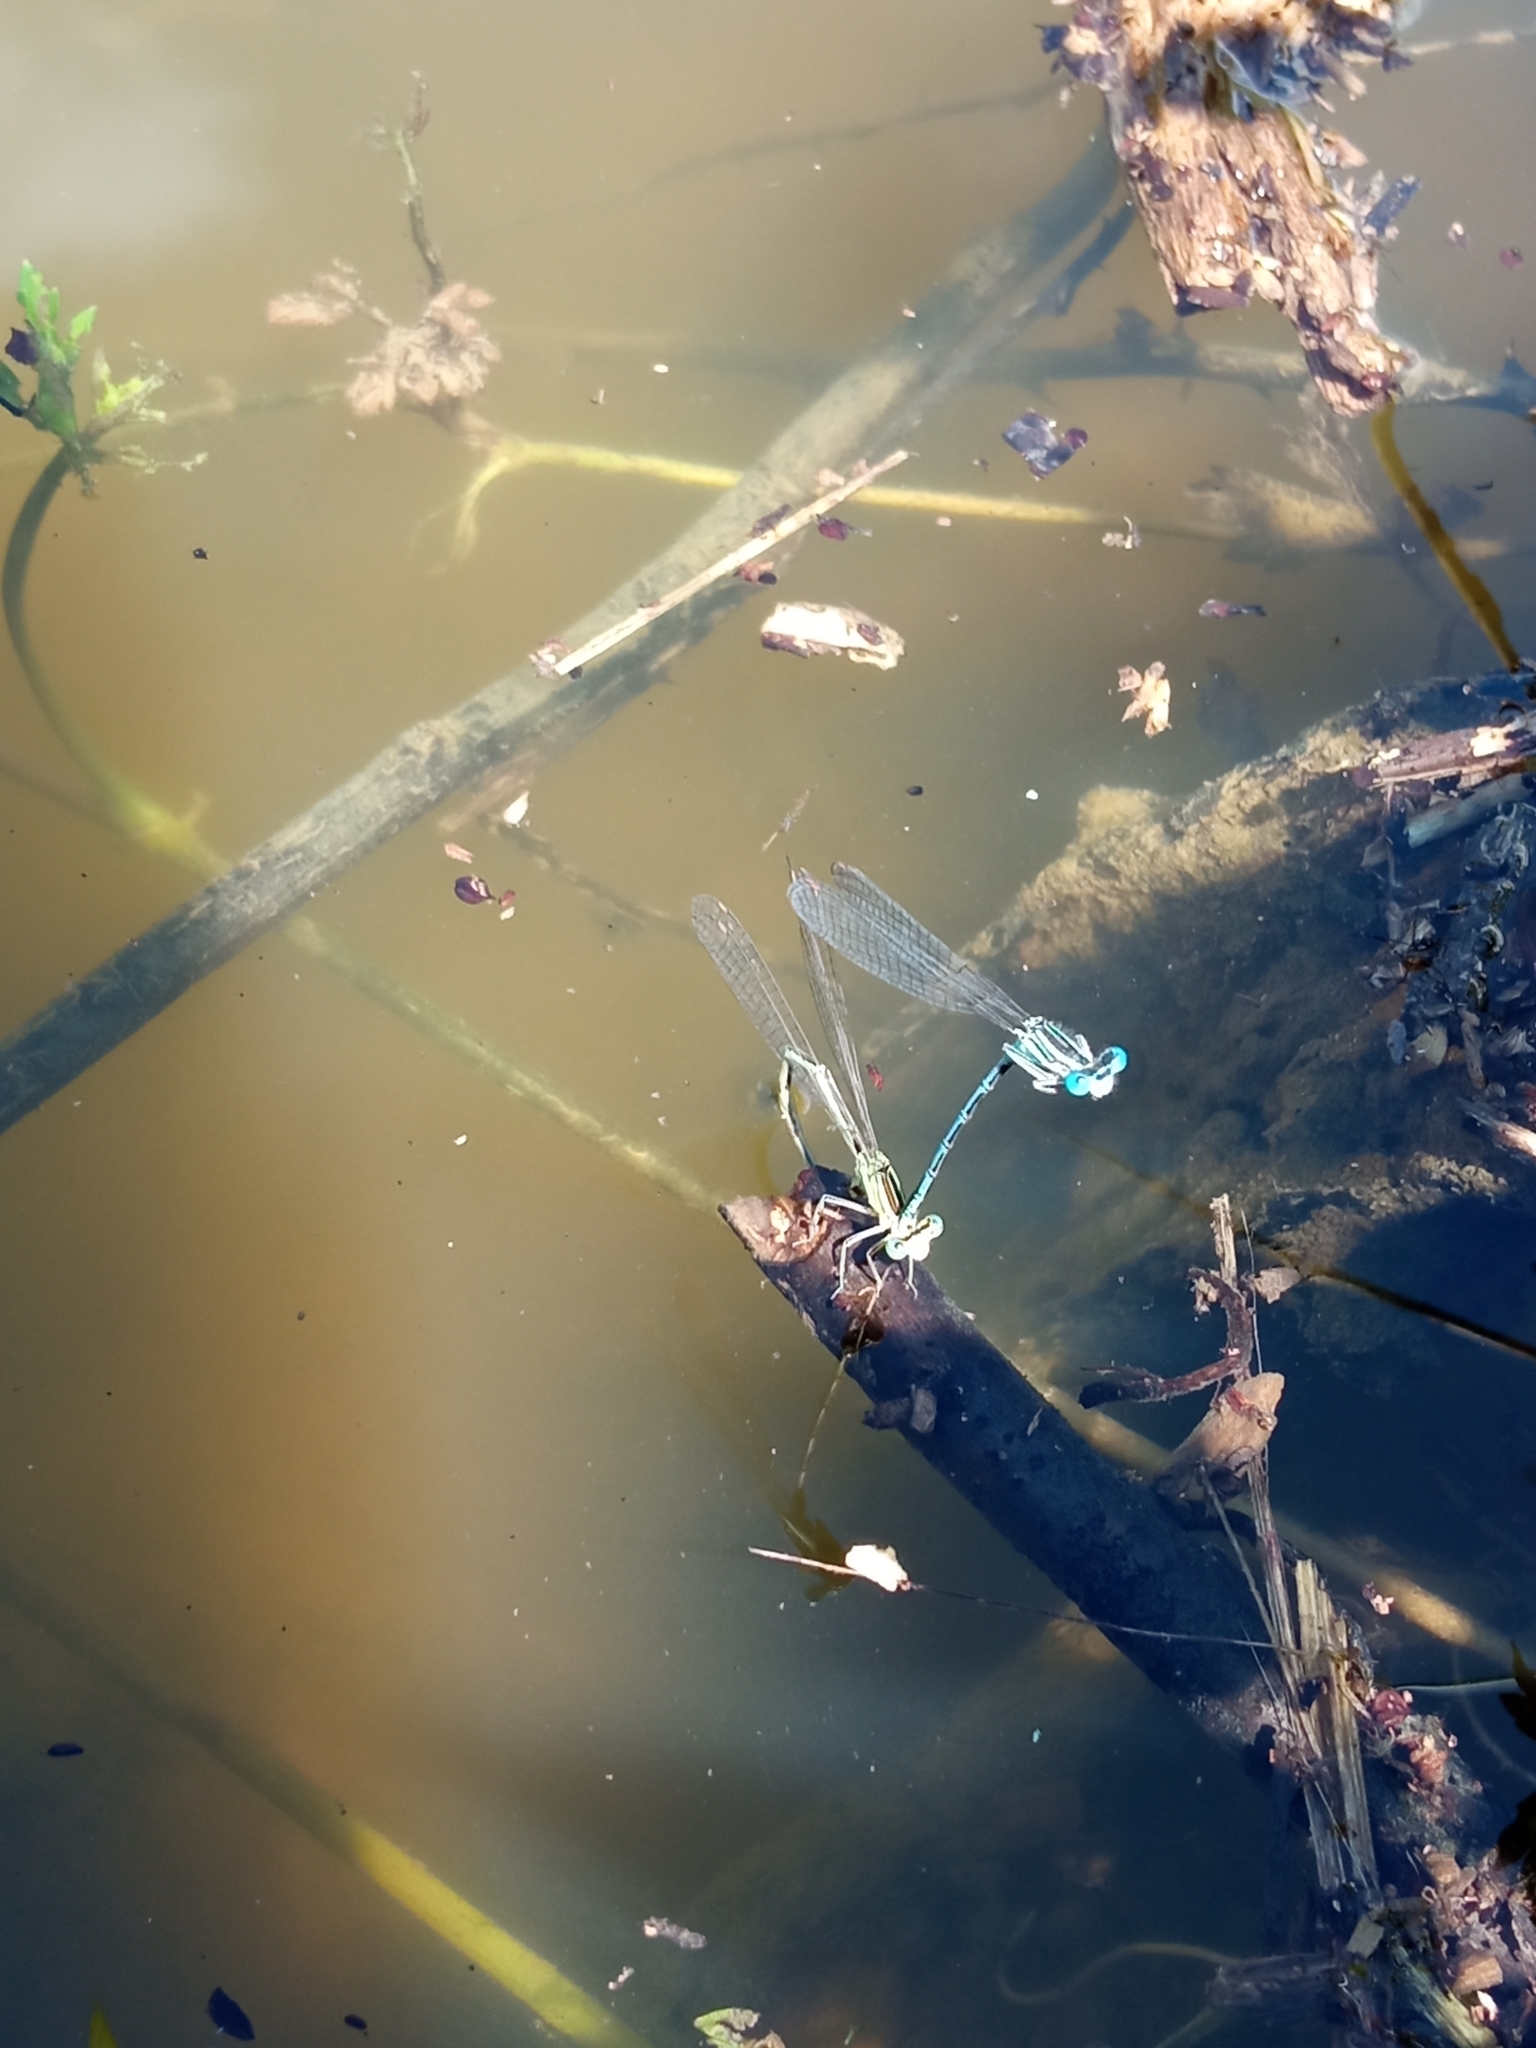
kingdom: Animalia
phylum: Arthropoda
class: Insecta
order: Odonata
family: Platycnemididae
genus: Platycnemis
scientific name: Platycnemis pennipes
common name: White-legged damselfly
